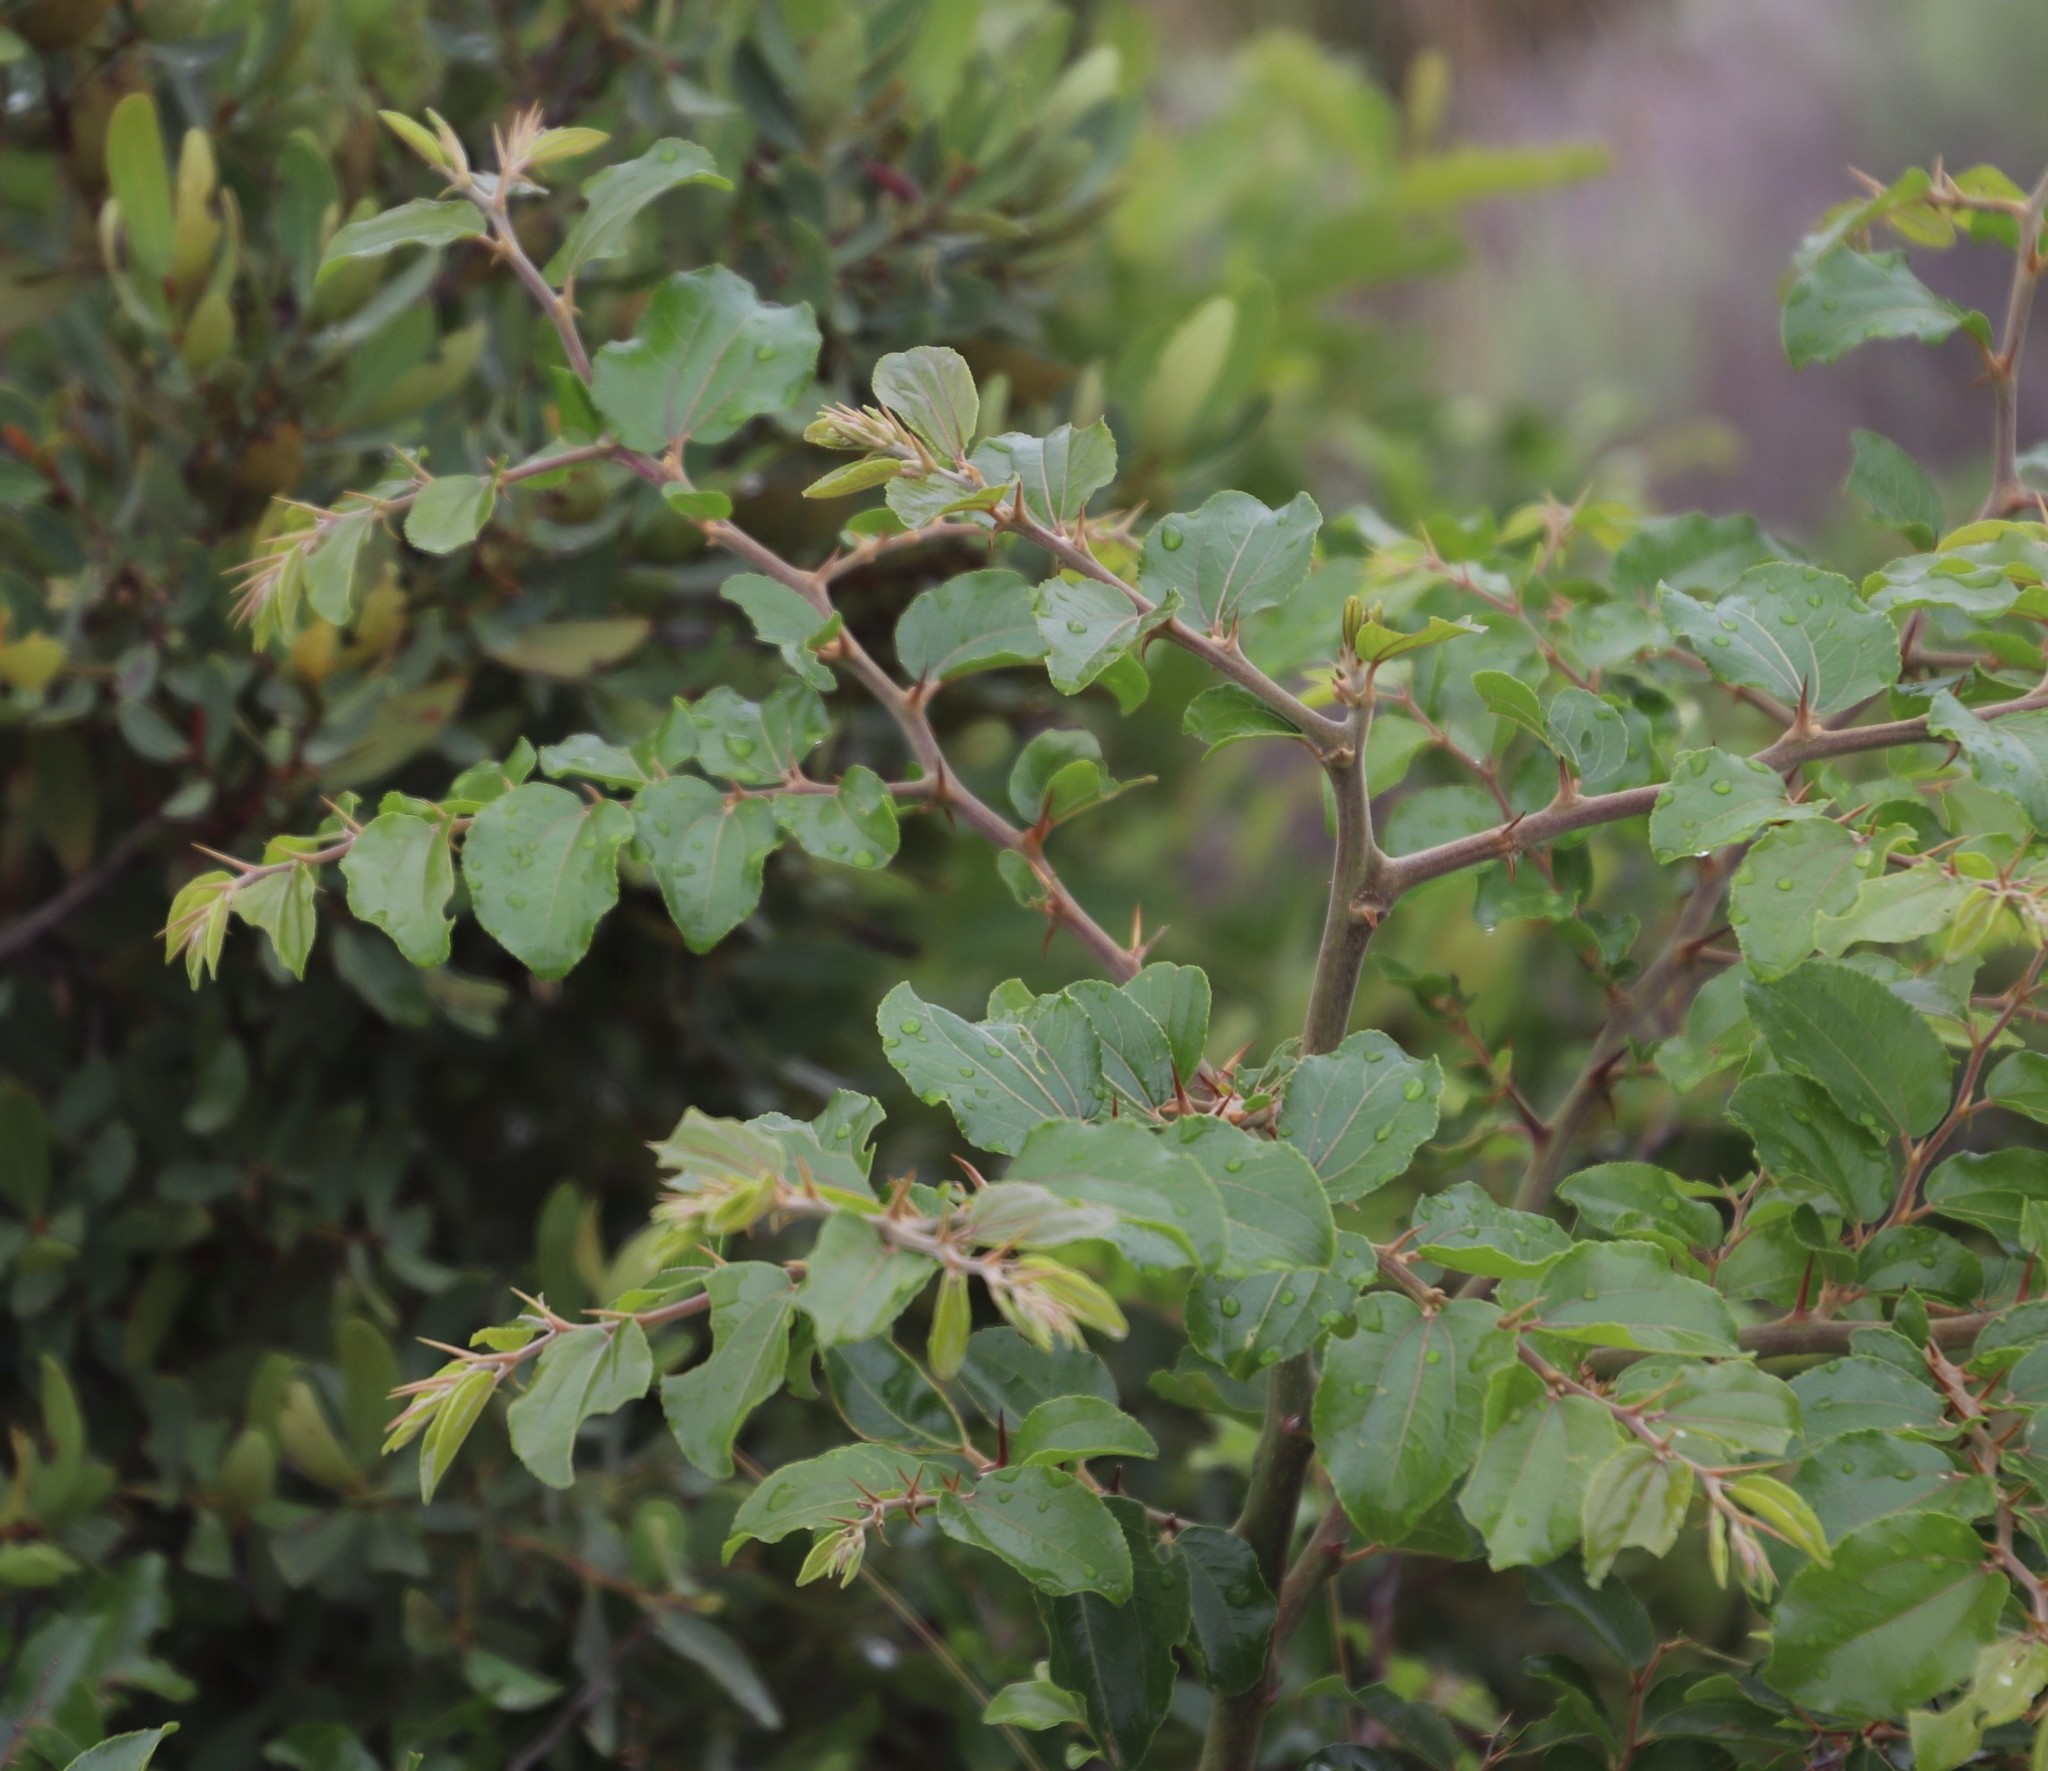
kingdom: Plantae
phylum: Tracheophyta
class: Magnoliopsida
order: Rosales
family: Rhamnaceae
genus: Ziziphus
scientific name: Ziziphus mucronata
